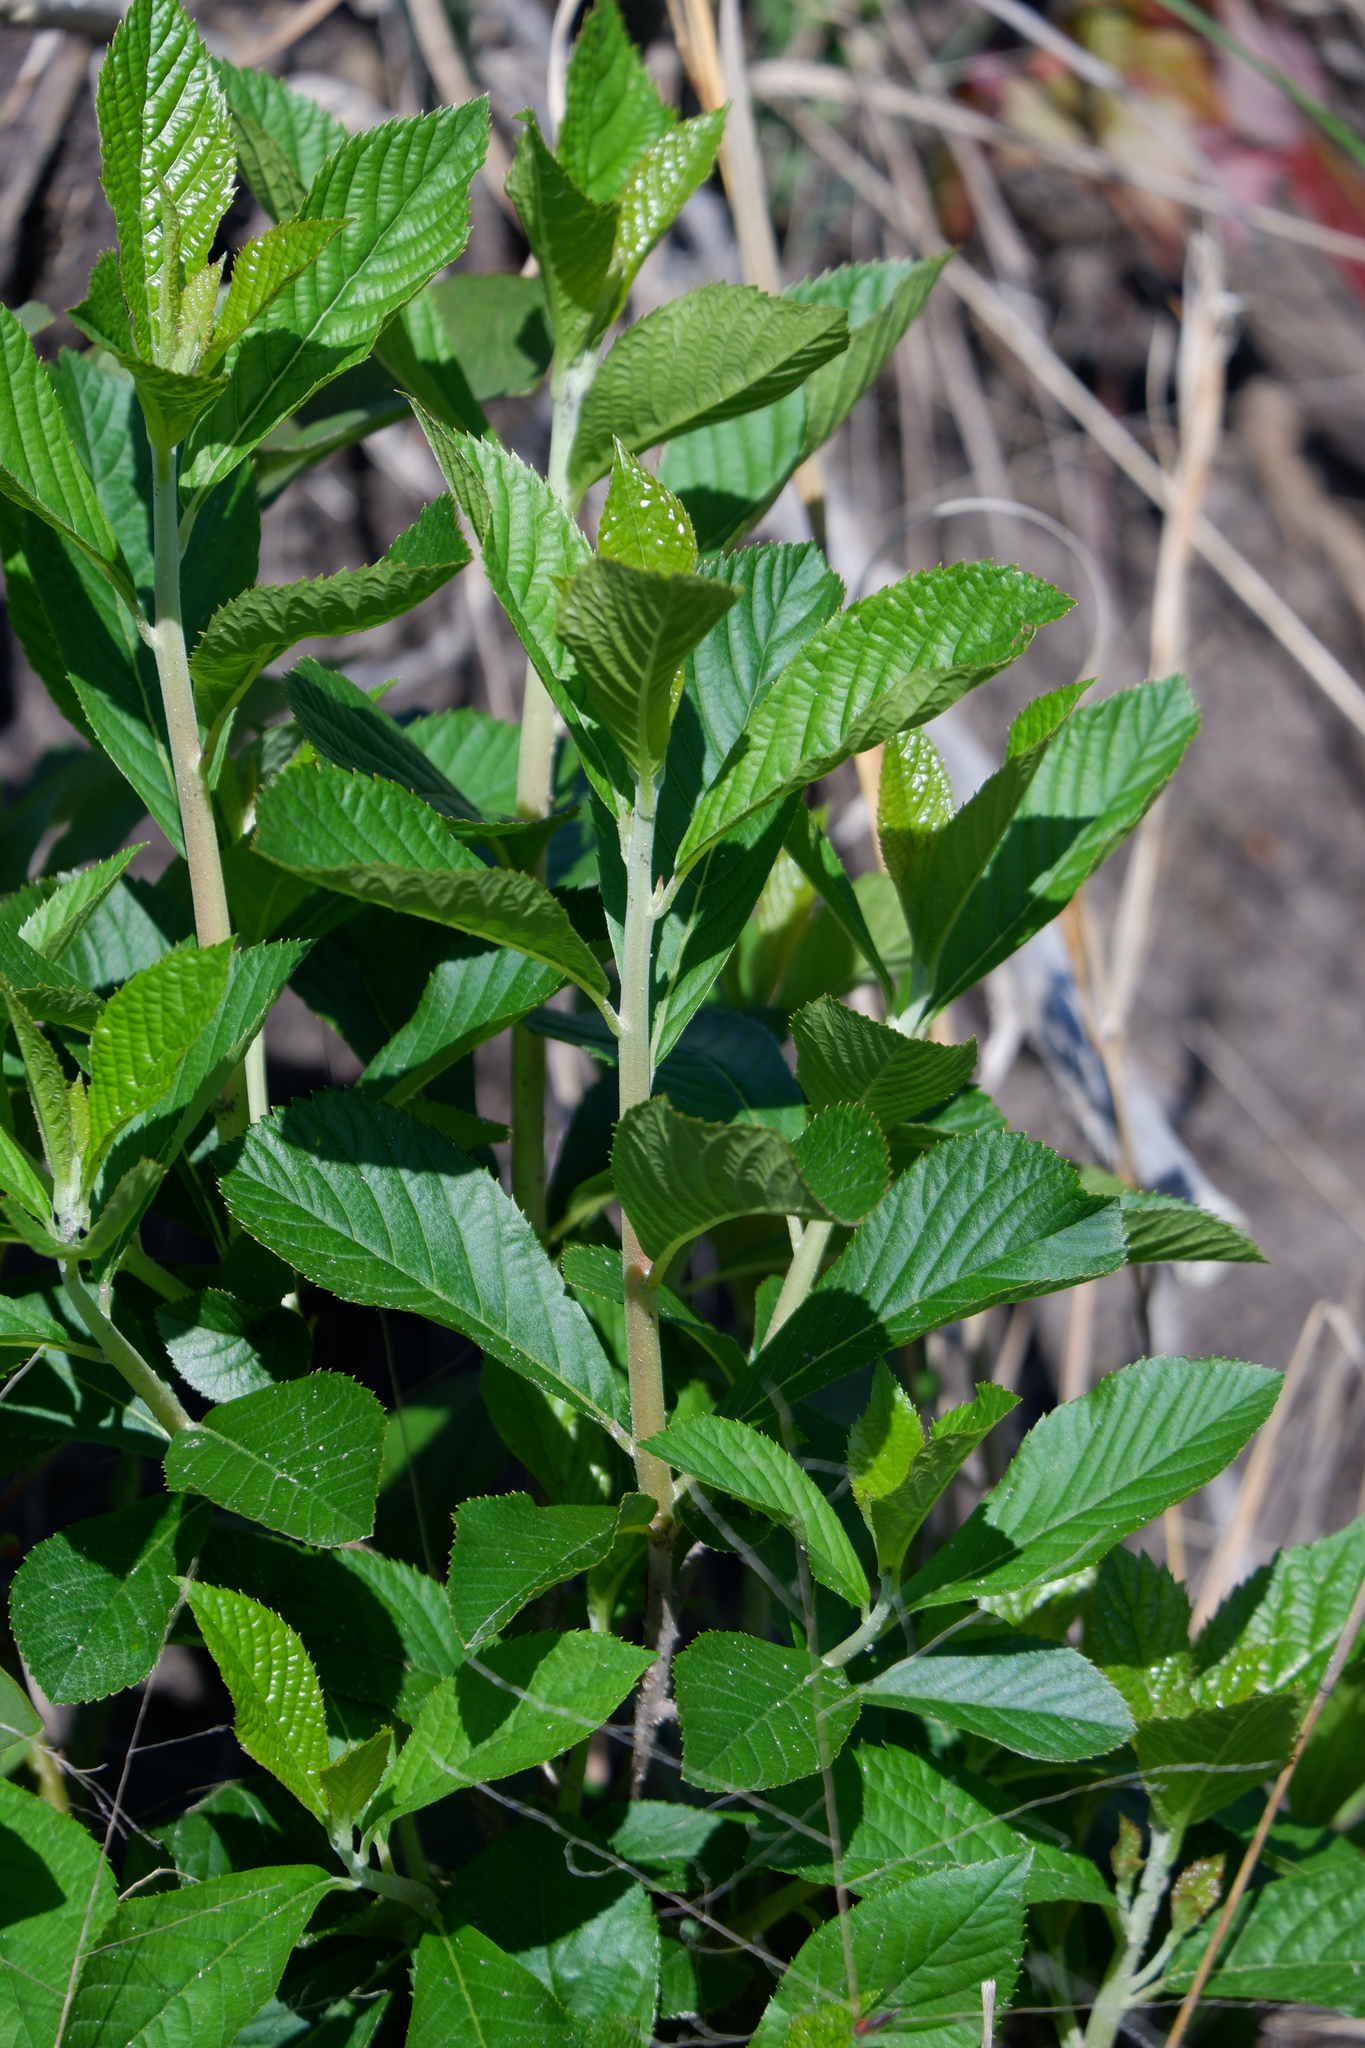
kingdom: Plantae
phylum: Tracheophyta
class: Magnoliopsida
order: Ericales
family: Clethraceae
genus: Clethra
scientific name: Clethra alnifolia
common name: Sweet pepperbush
